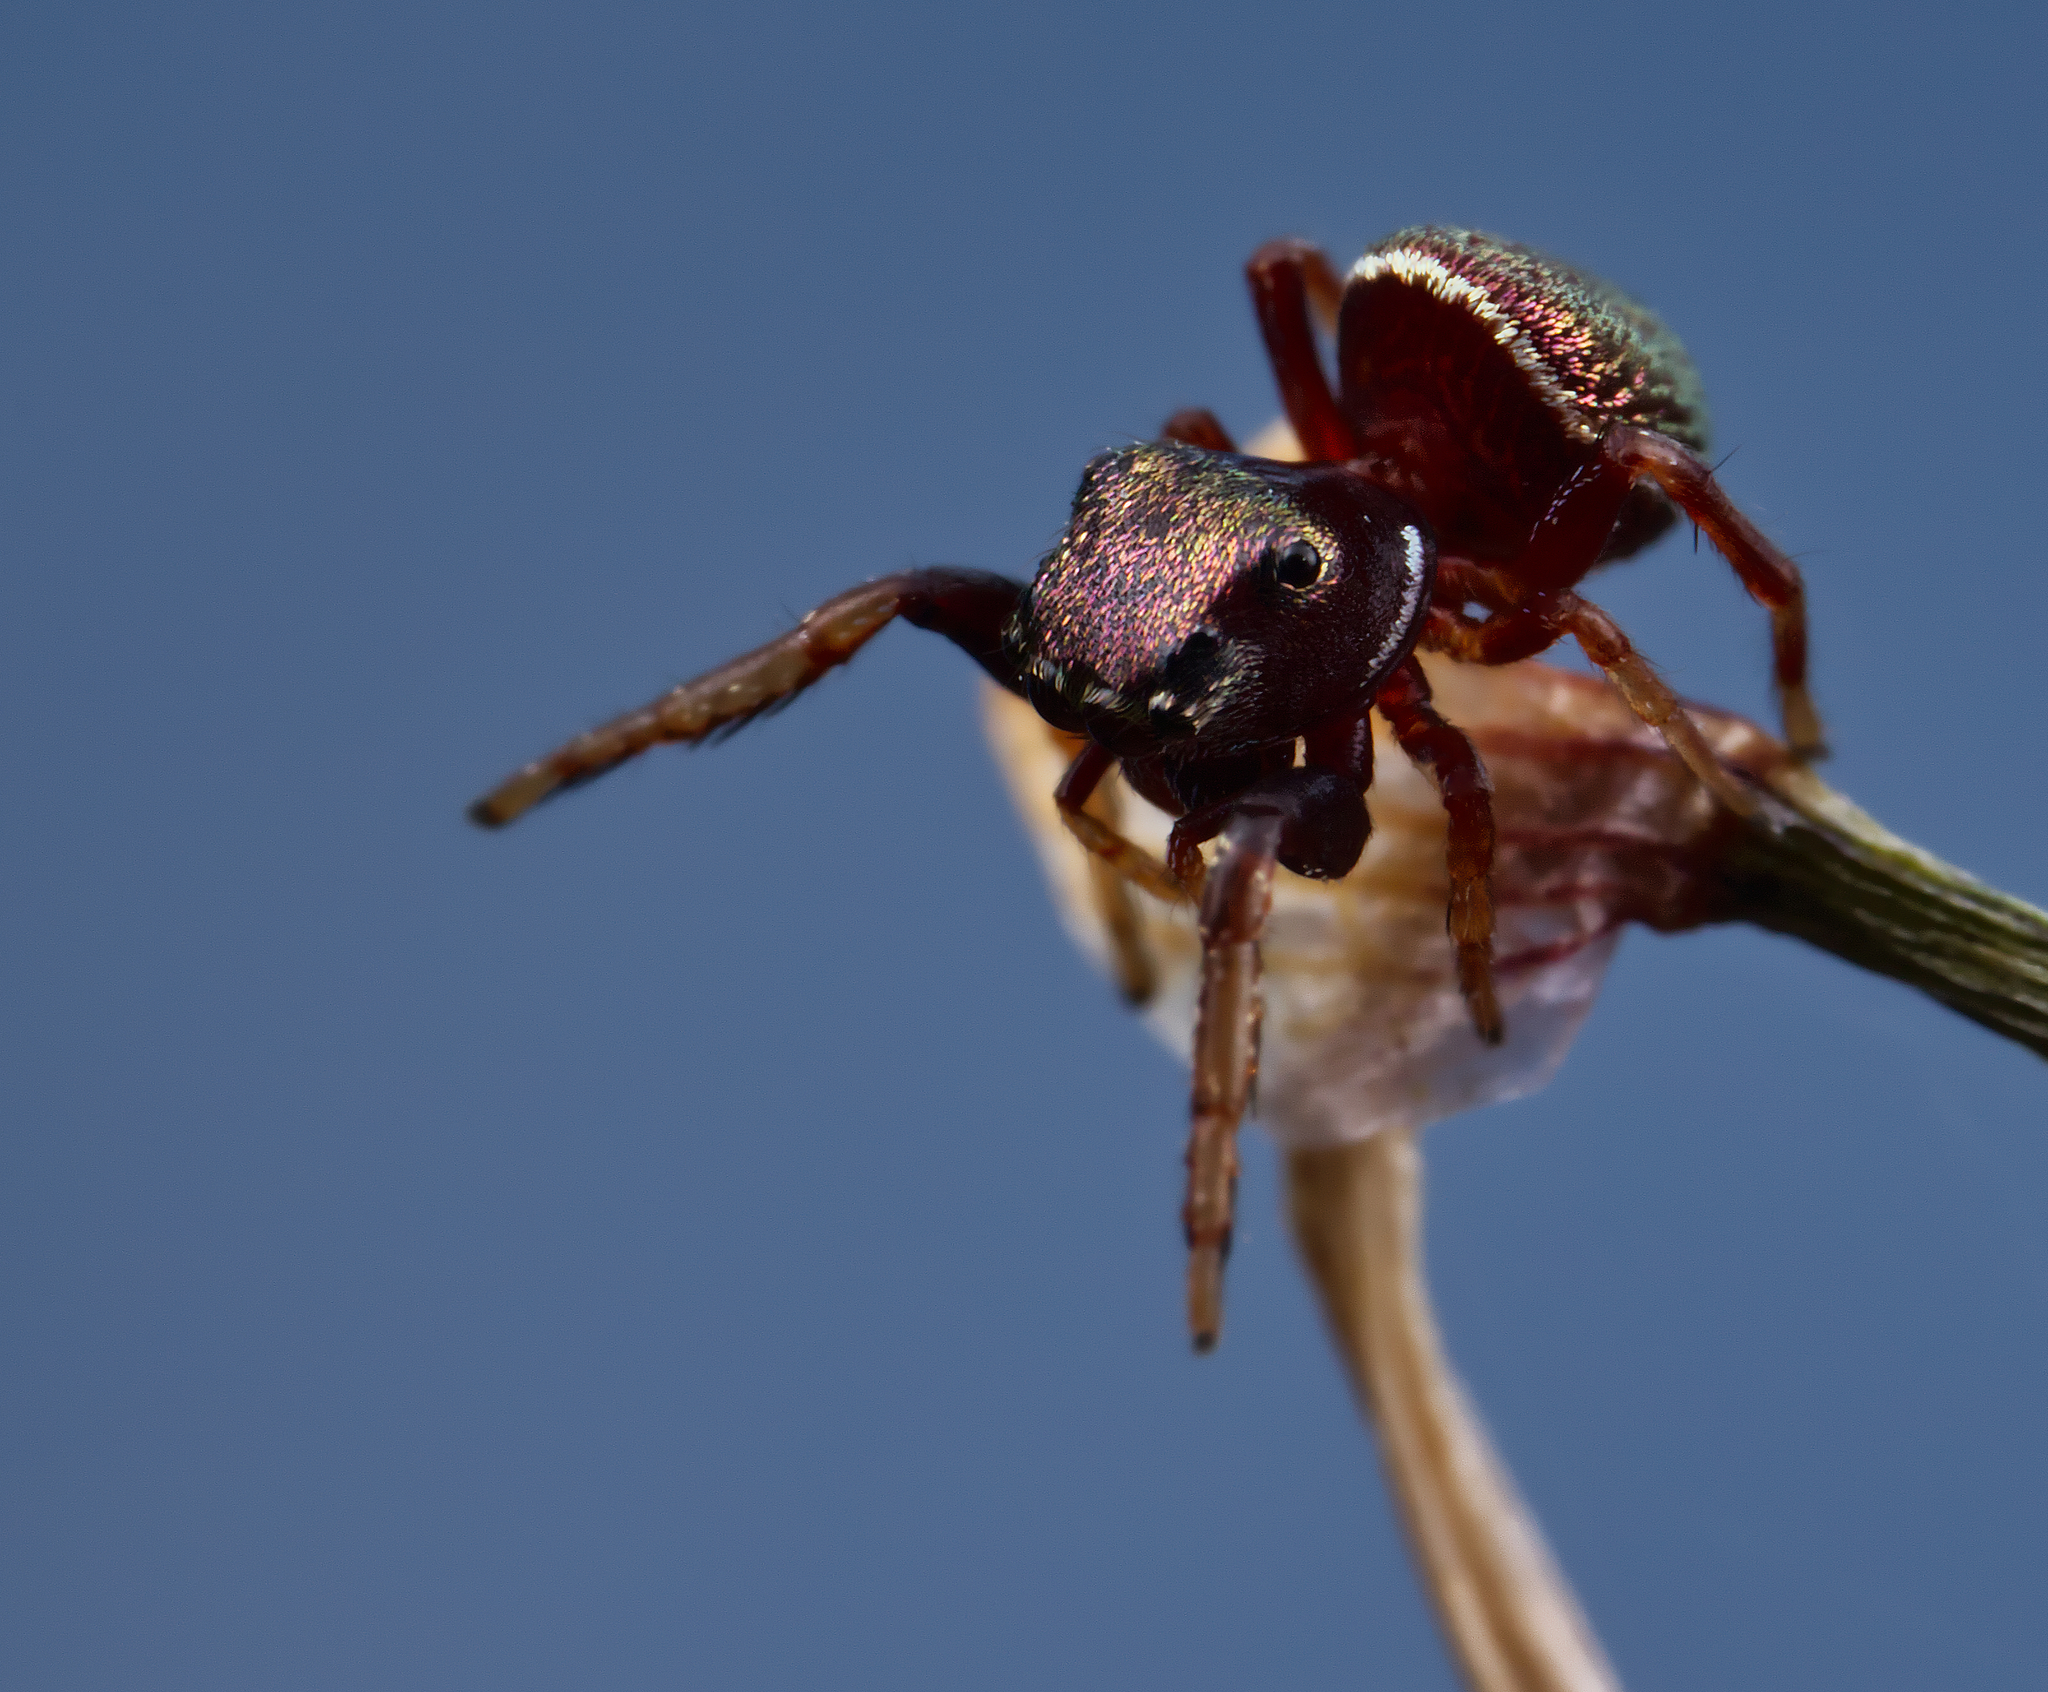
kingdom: Animalia
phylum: Arthropoda
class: Arachnida
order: Araneae
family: Salticidae
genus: Zygoballus
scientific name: Zygoballus sexpunctatus
